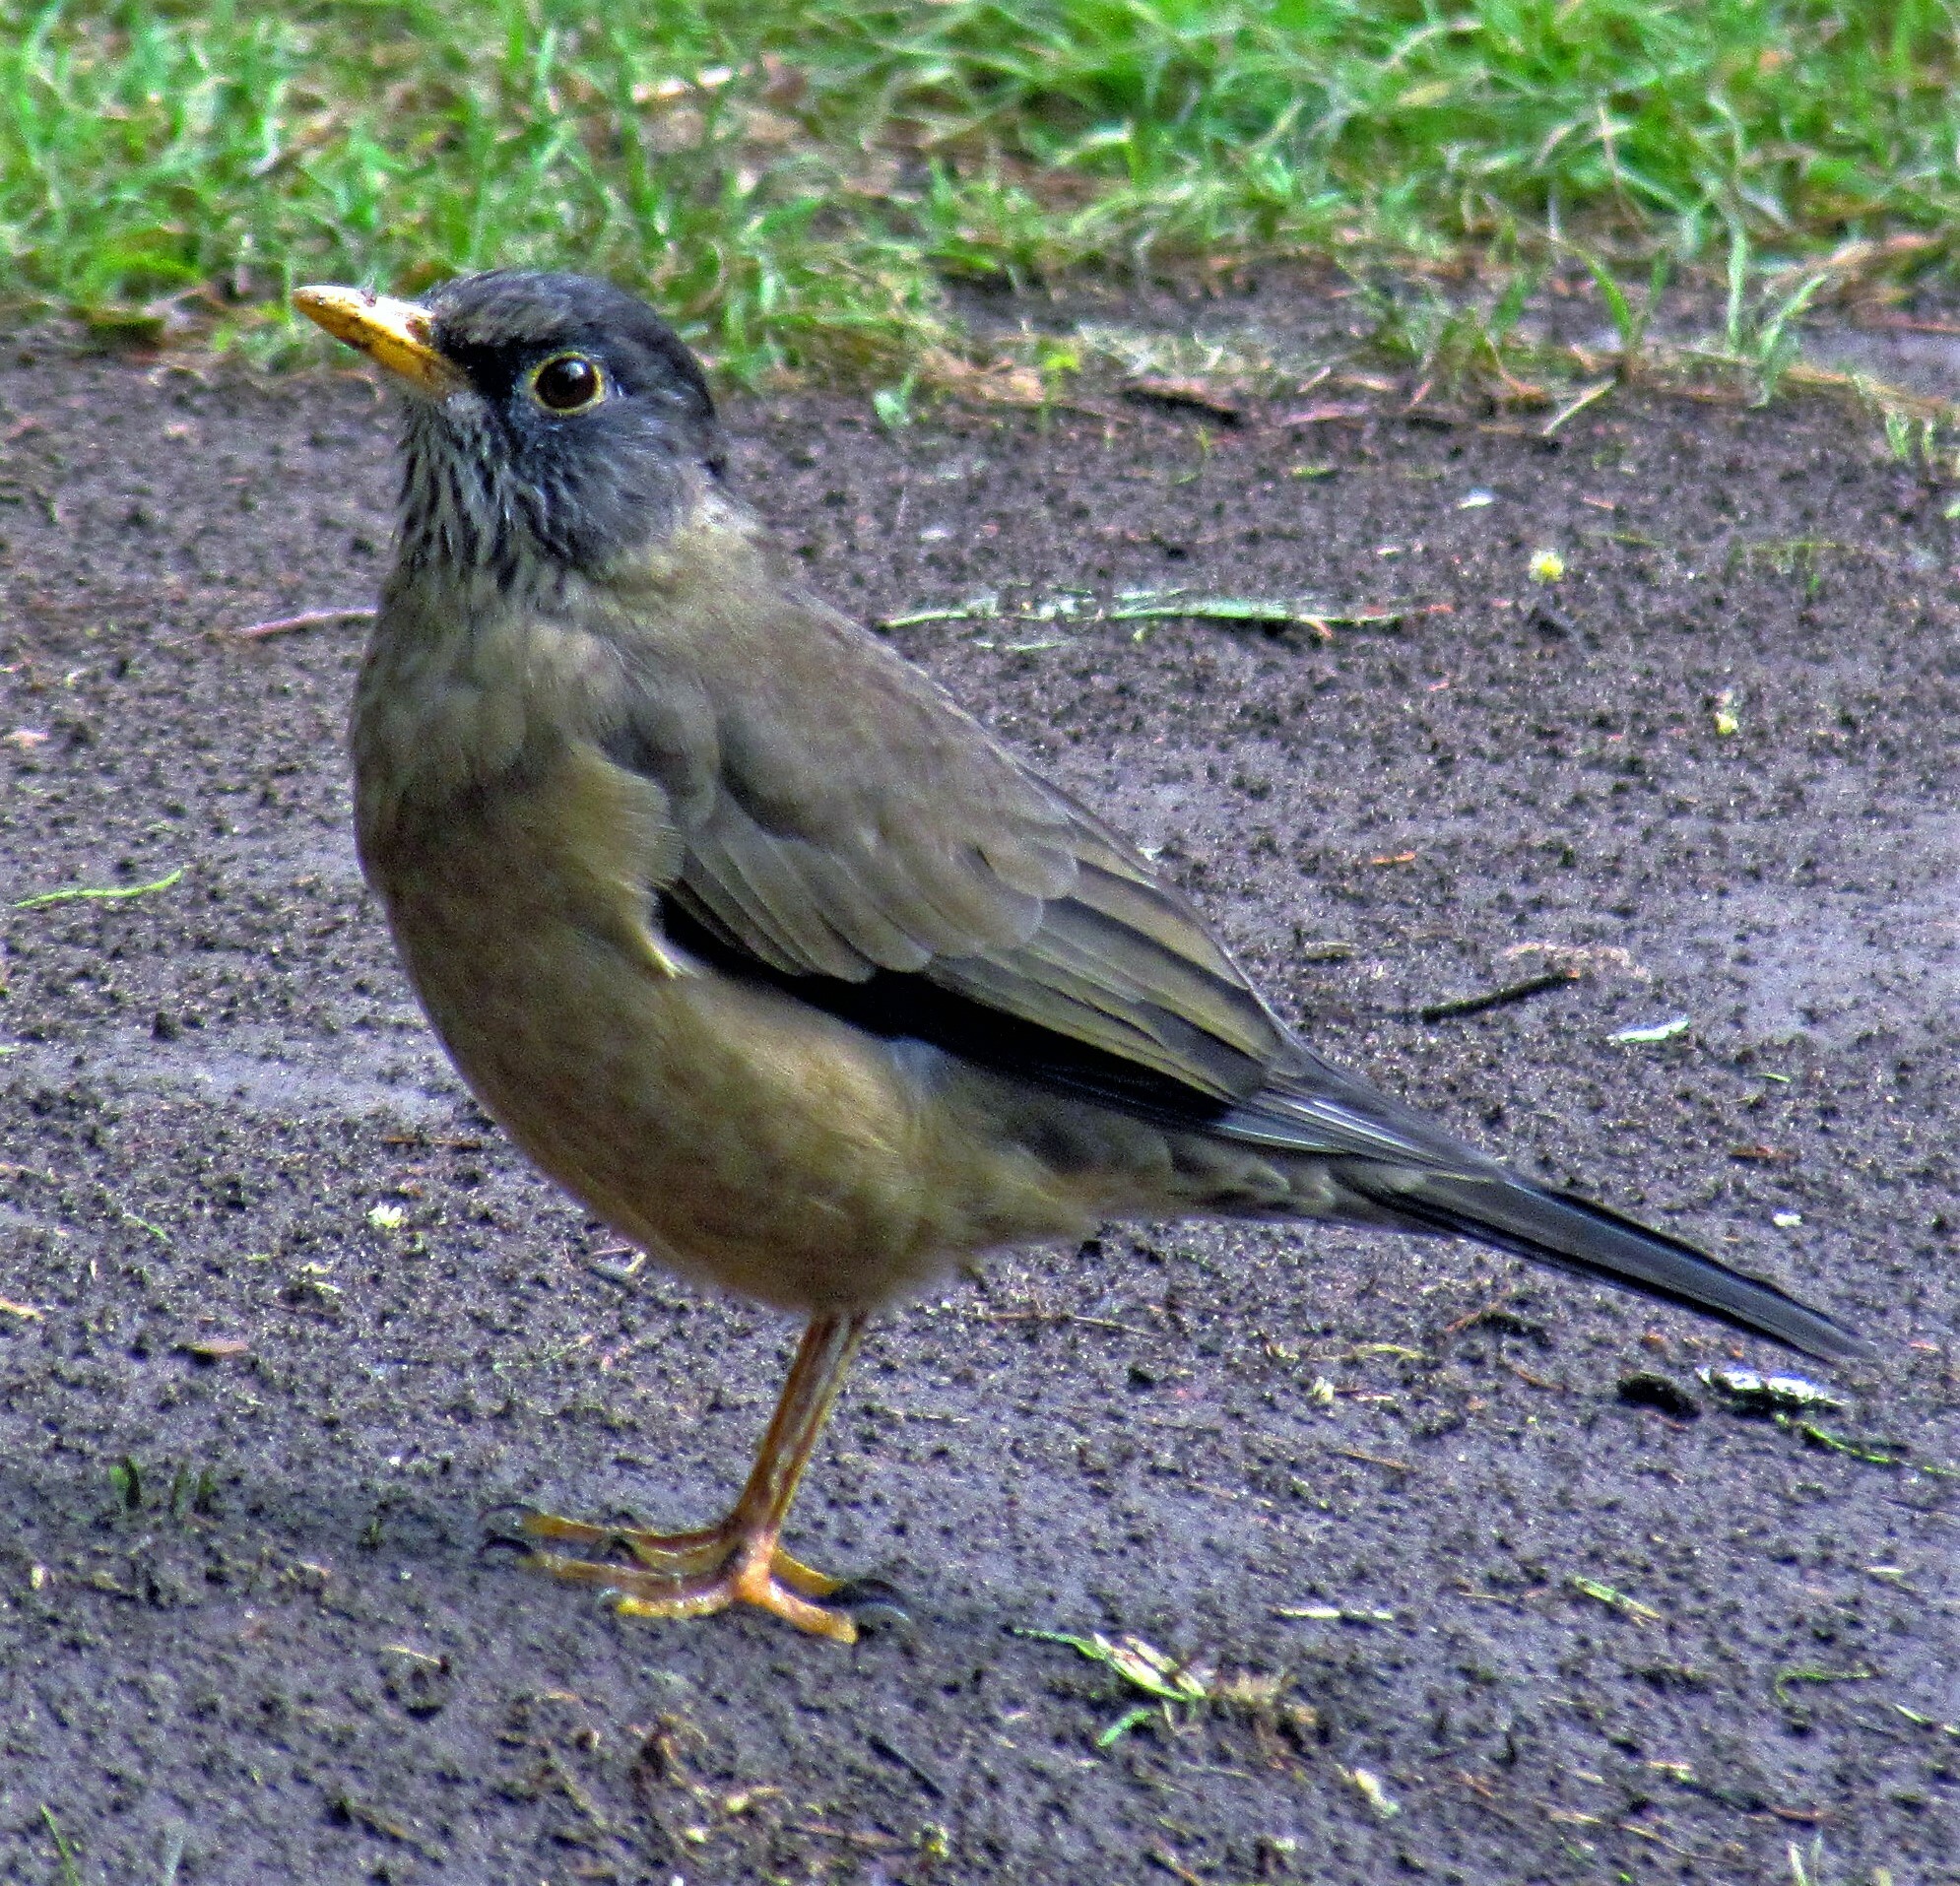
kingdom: Animalia
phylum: Chordata
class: Aves
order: Passeriformes
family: Turdidae
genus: Turdus
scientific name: Turdus falcklandii
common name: Austral thrush
